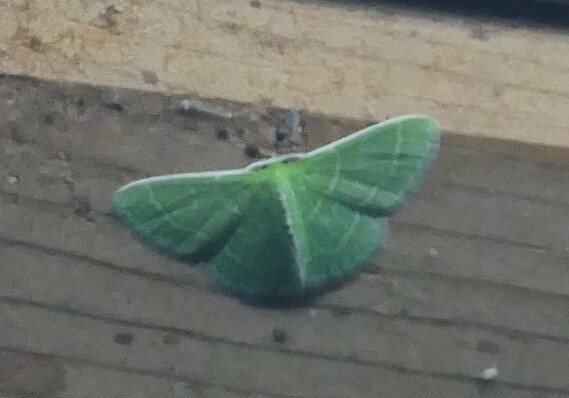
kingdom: Animalia
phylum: Arthropoda
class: Insecta
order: Lepidoptera
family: Geometridae
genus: Synchlora
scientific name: Synchlora aerata
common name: Wavy-lined emerald
